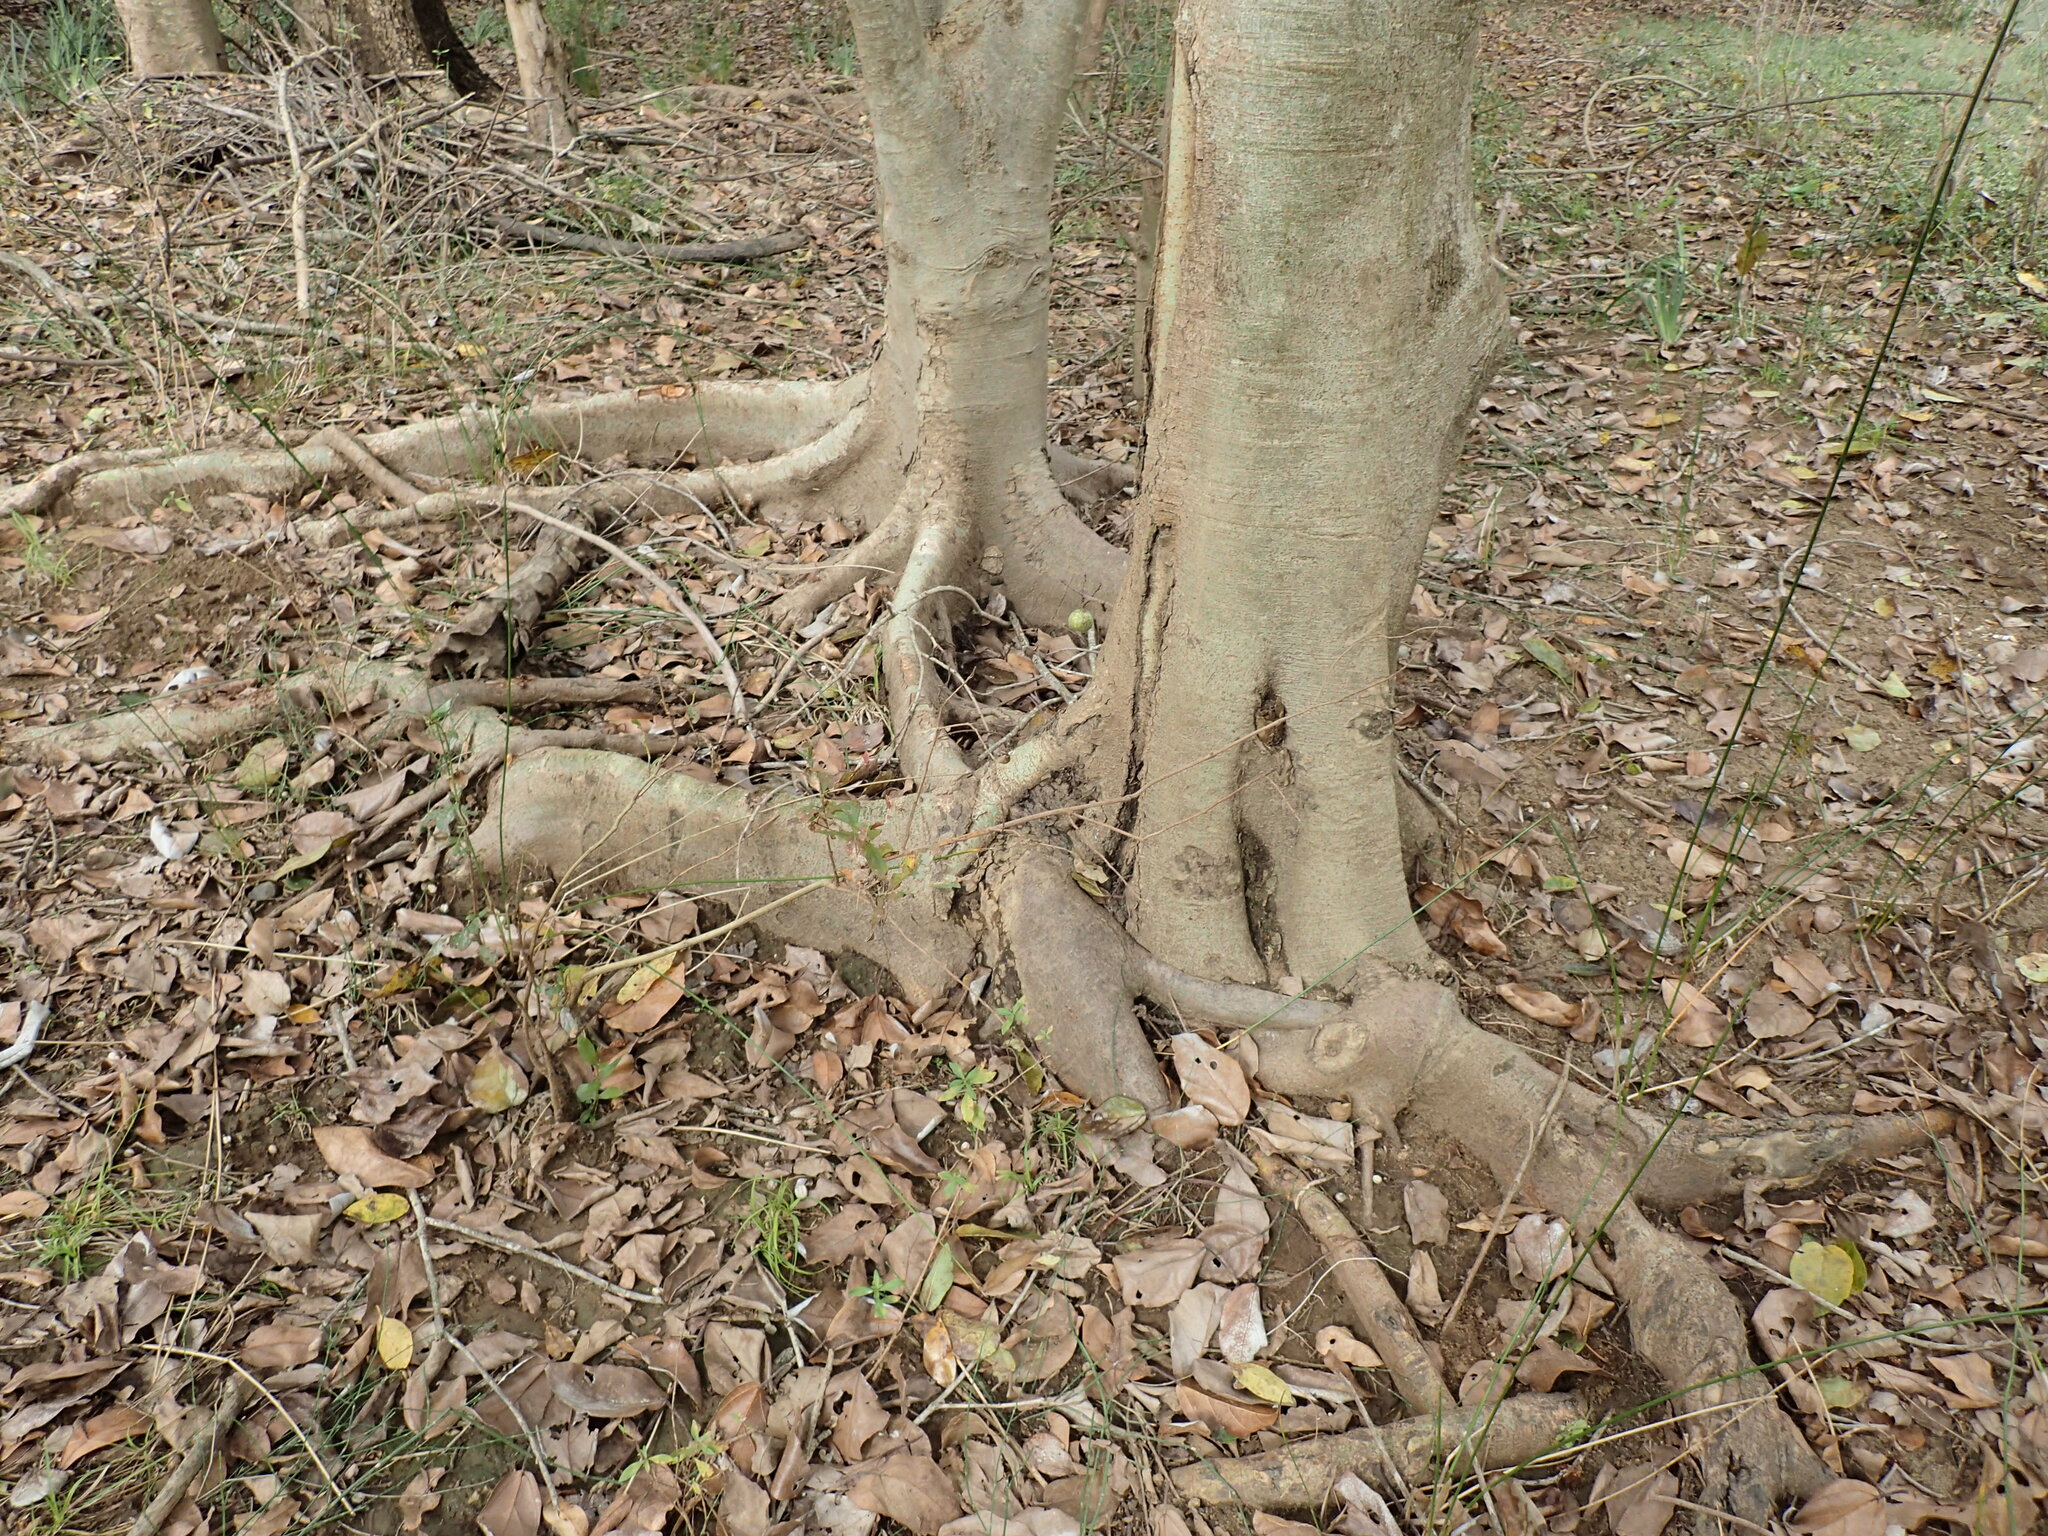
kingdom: Plantae
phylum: Tracheophyta
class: Magnoliopsida
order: Rosales
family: Moraceae
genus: Ficus
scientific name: Ficus sur
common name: Cape fig
